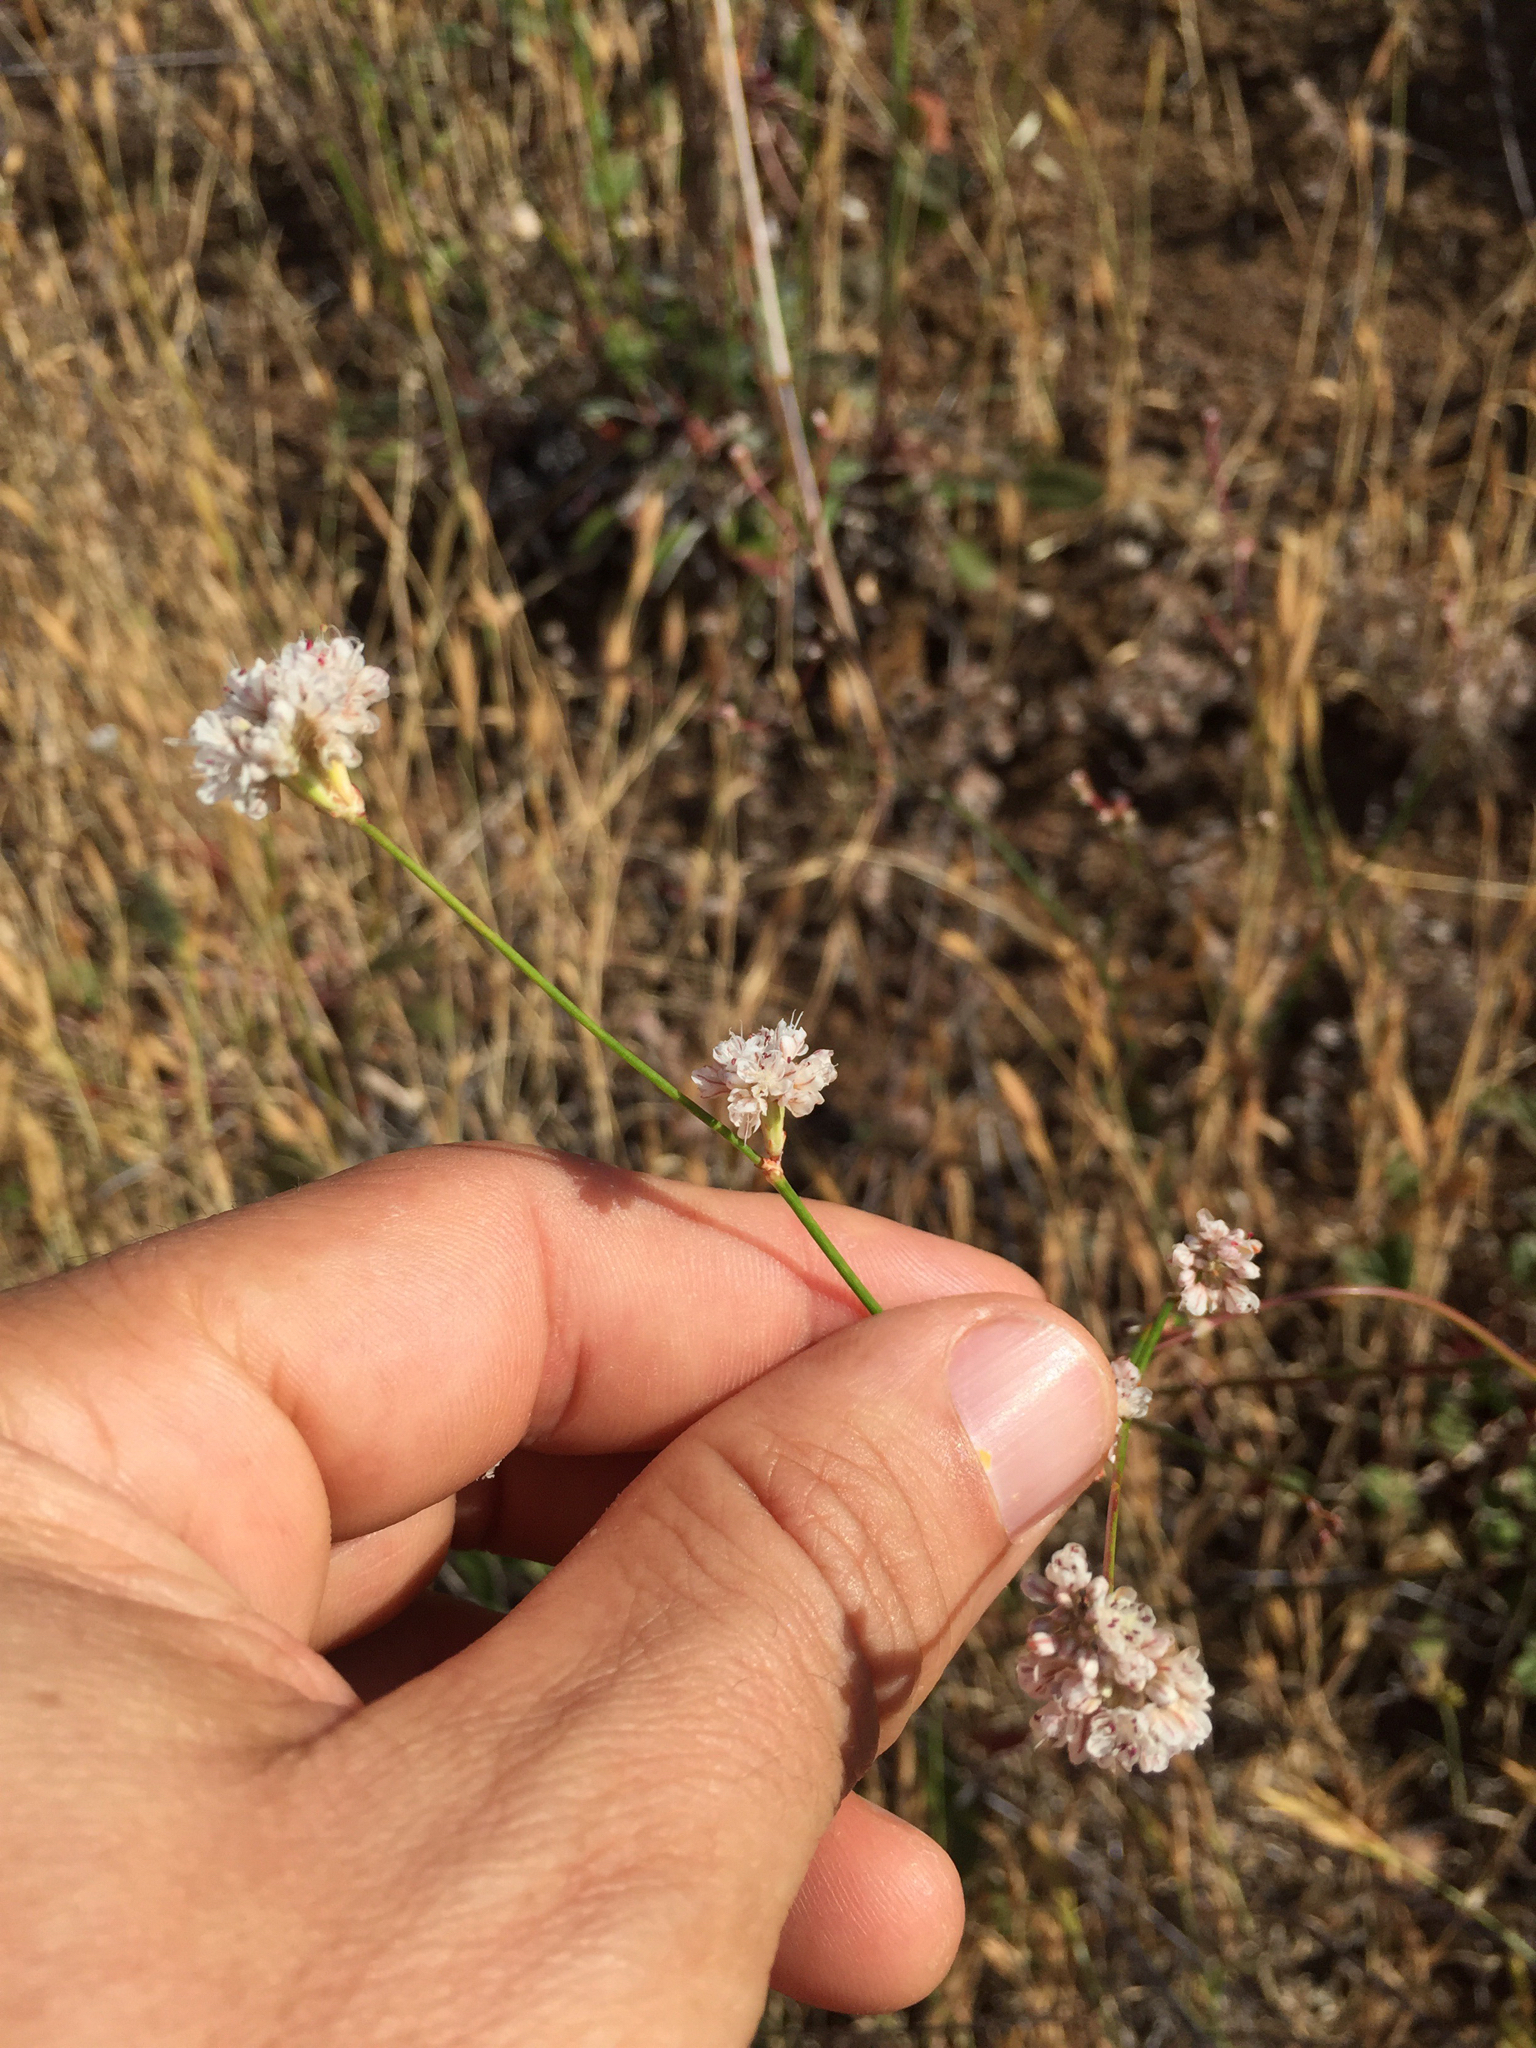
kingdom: Plantae
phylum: Tracheophyta
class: Magnoliopsida
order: Caryophyllales
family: Polygonaceae
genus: Eriogonum
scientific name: Eriogonum nudum
